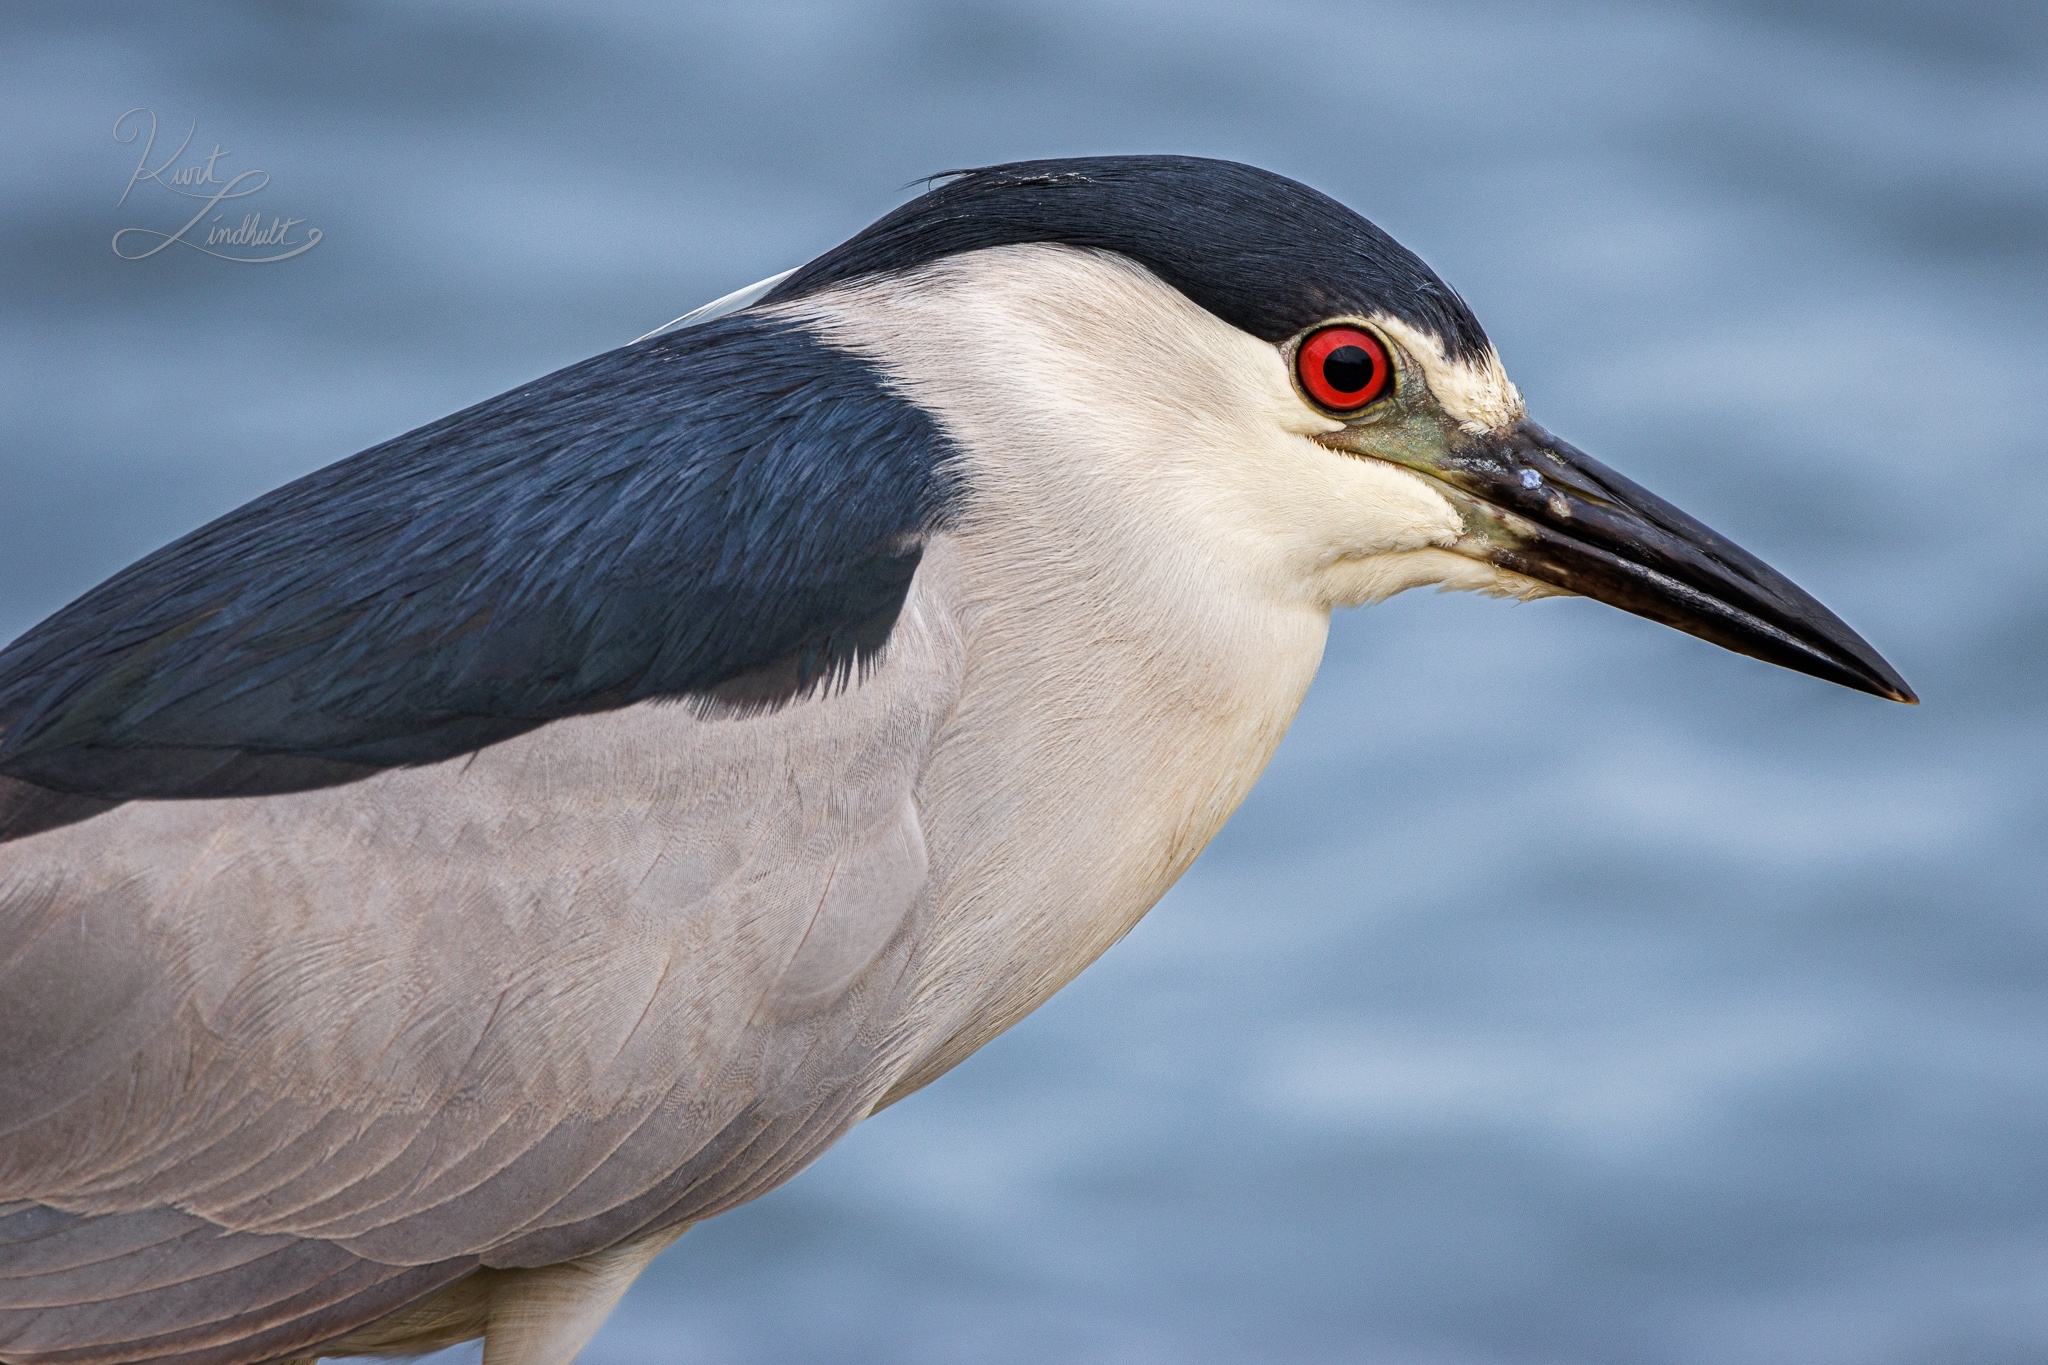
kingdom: Animalia
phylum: Chordata
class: Aves
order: Pelecaniformes
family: Ardeidae
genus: Nycticorax
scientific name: Nycticorax nycticorax
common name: Black-crowned night heron
